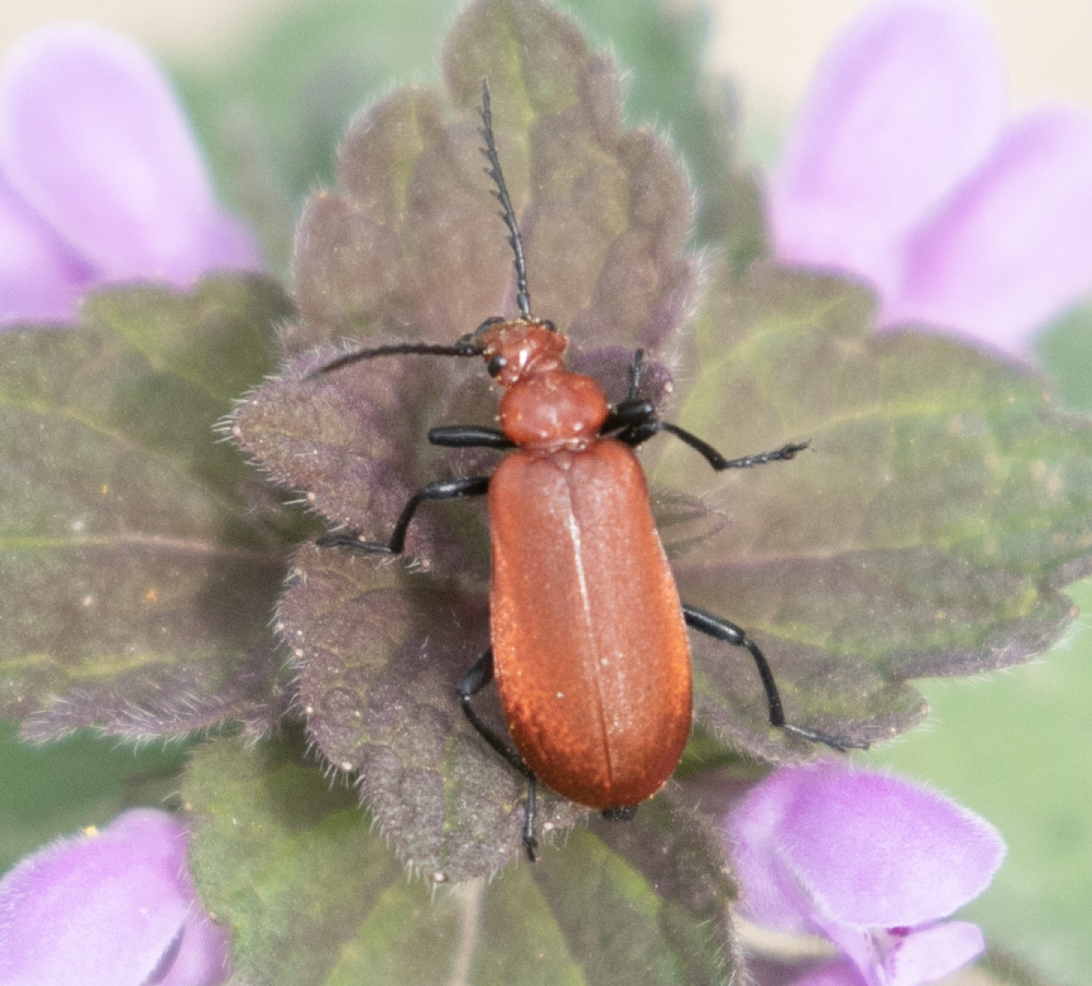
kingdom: Animalia
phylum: Arthropoda
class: Insecta
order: Coleoptera
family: Pyrochroidae
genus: Pyrochroa
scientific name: Pyrochroa serraticornis
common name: Red-headed cardinal beetle
